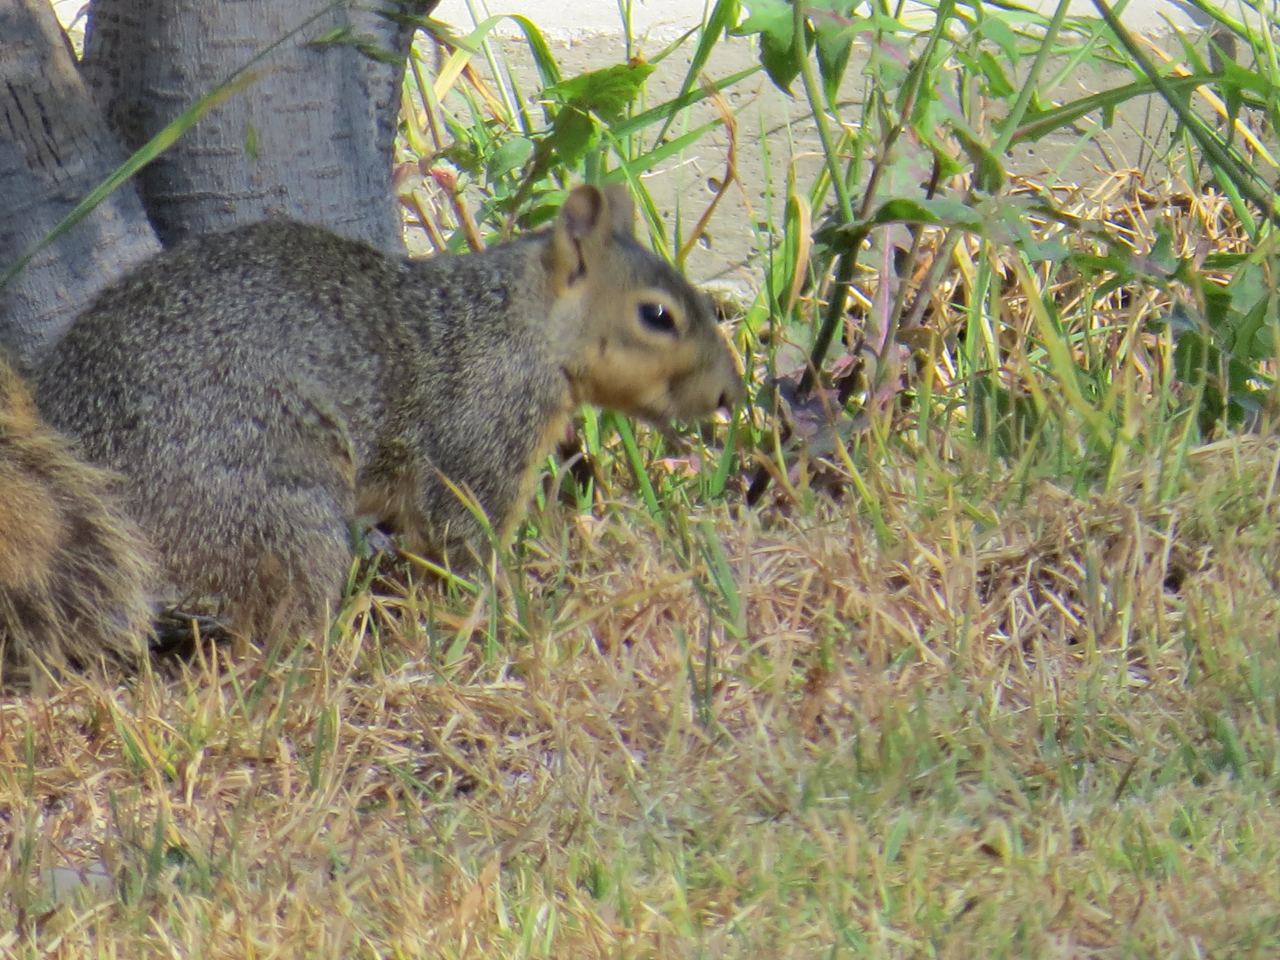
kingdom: Animalia
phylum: Chordata
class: Mammalia
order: Rodentia
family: Sciuridae
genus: Sciurus
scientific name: Sciurus niger
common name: Fox squirrel
